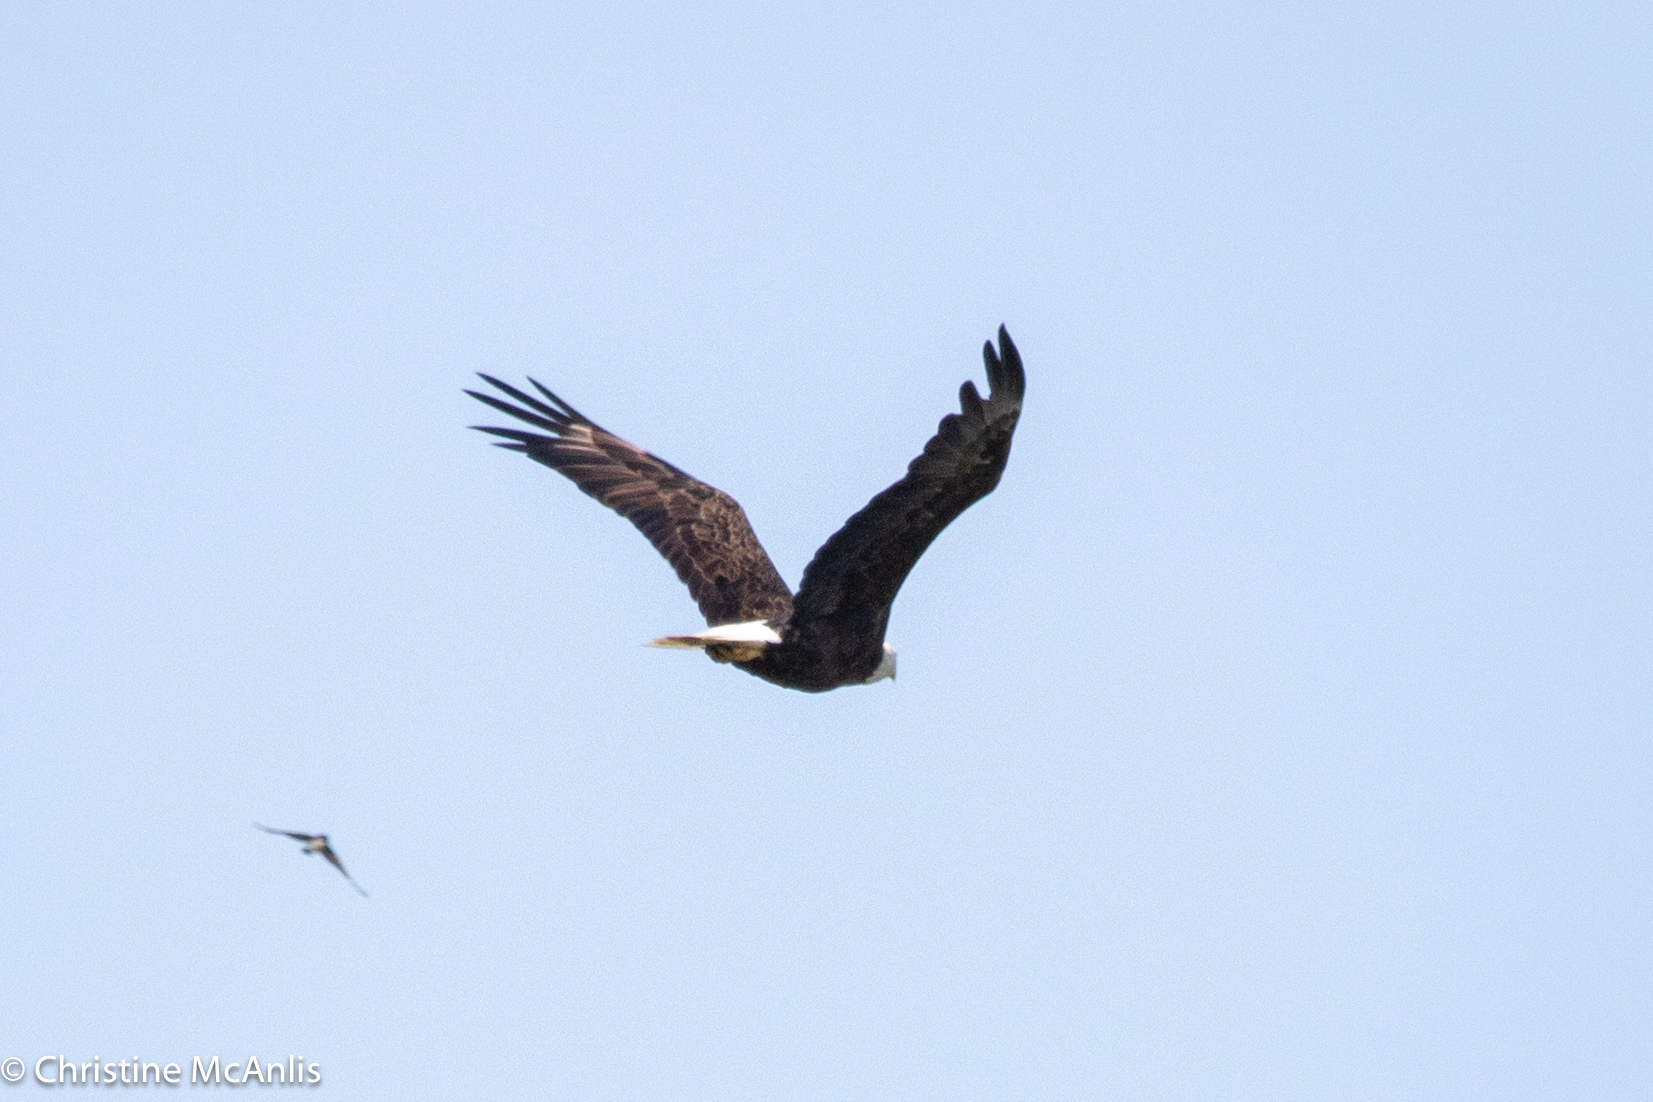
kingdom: Animalia
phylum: Chordata
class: Aves
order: Accipitriformes
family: Accipitridae
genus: Haliaeetus
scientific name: Haliaeetus leucocephalus
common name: Bald eagle
